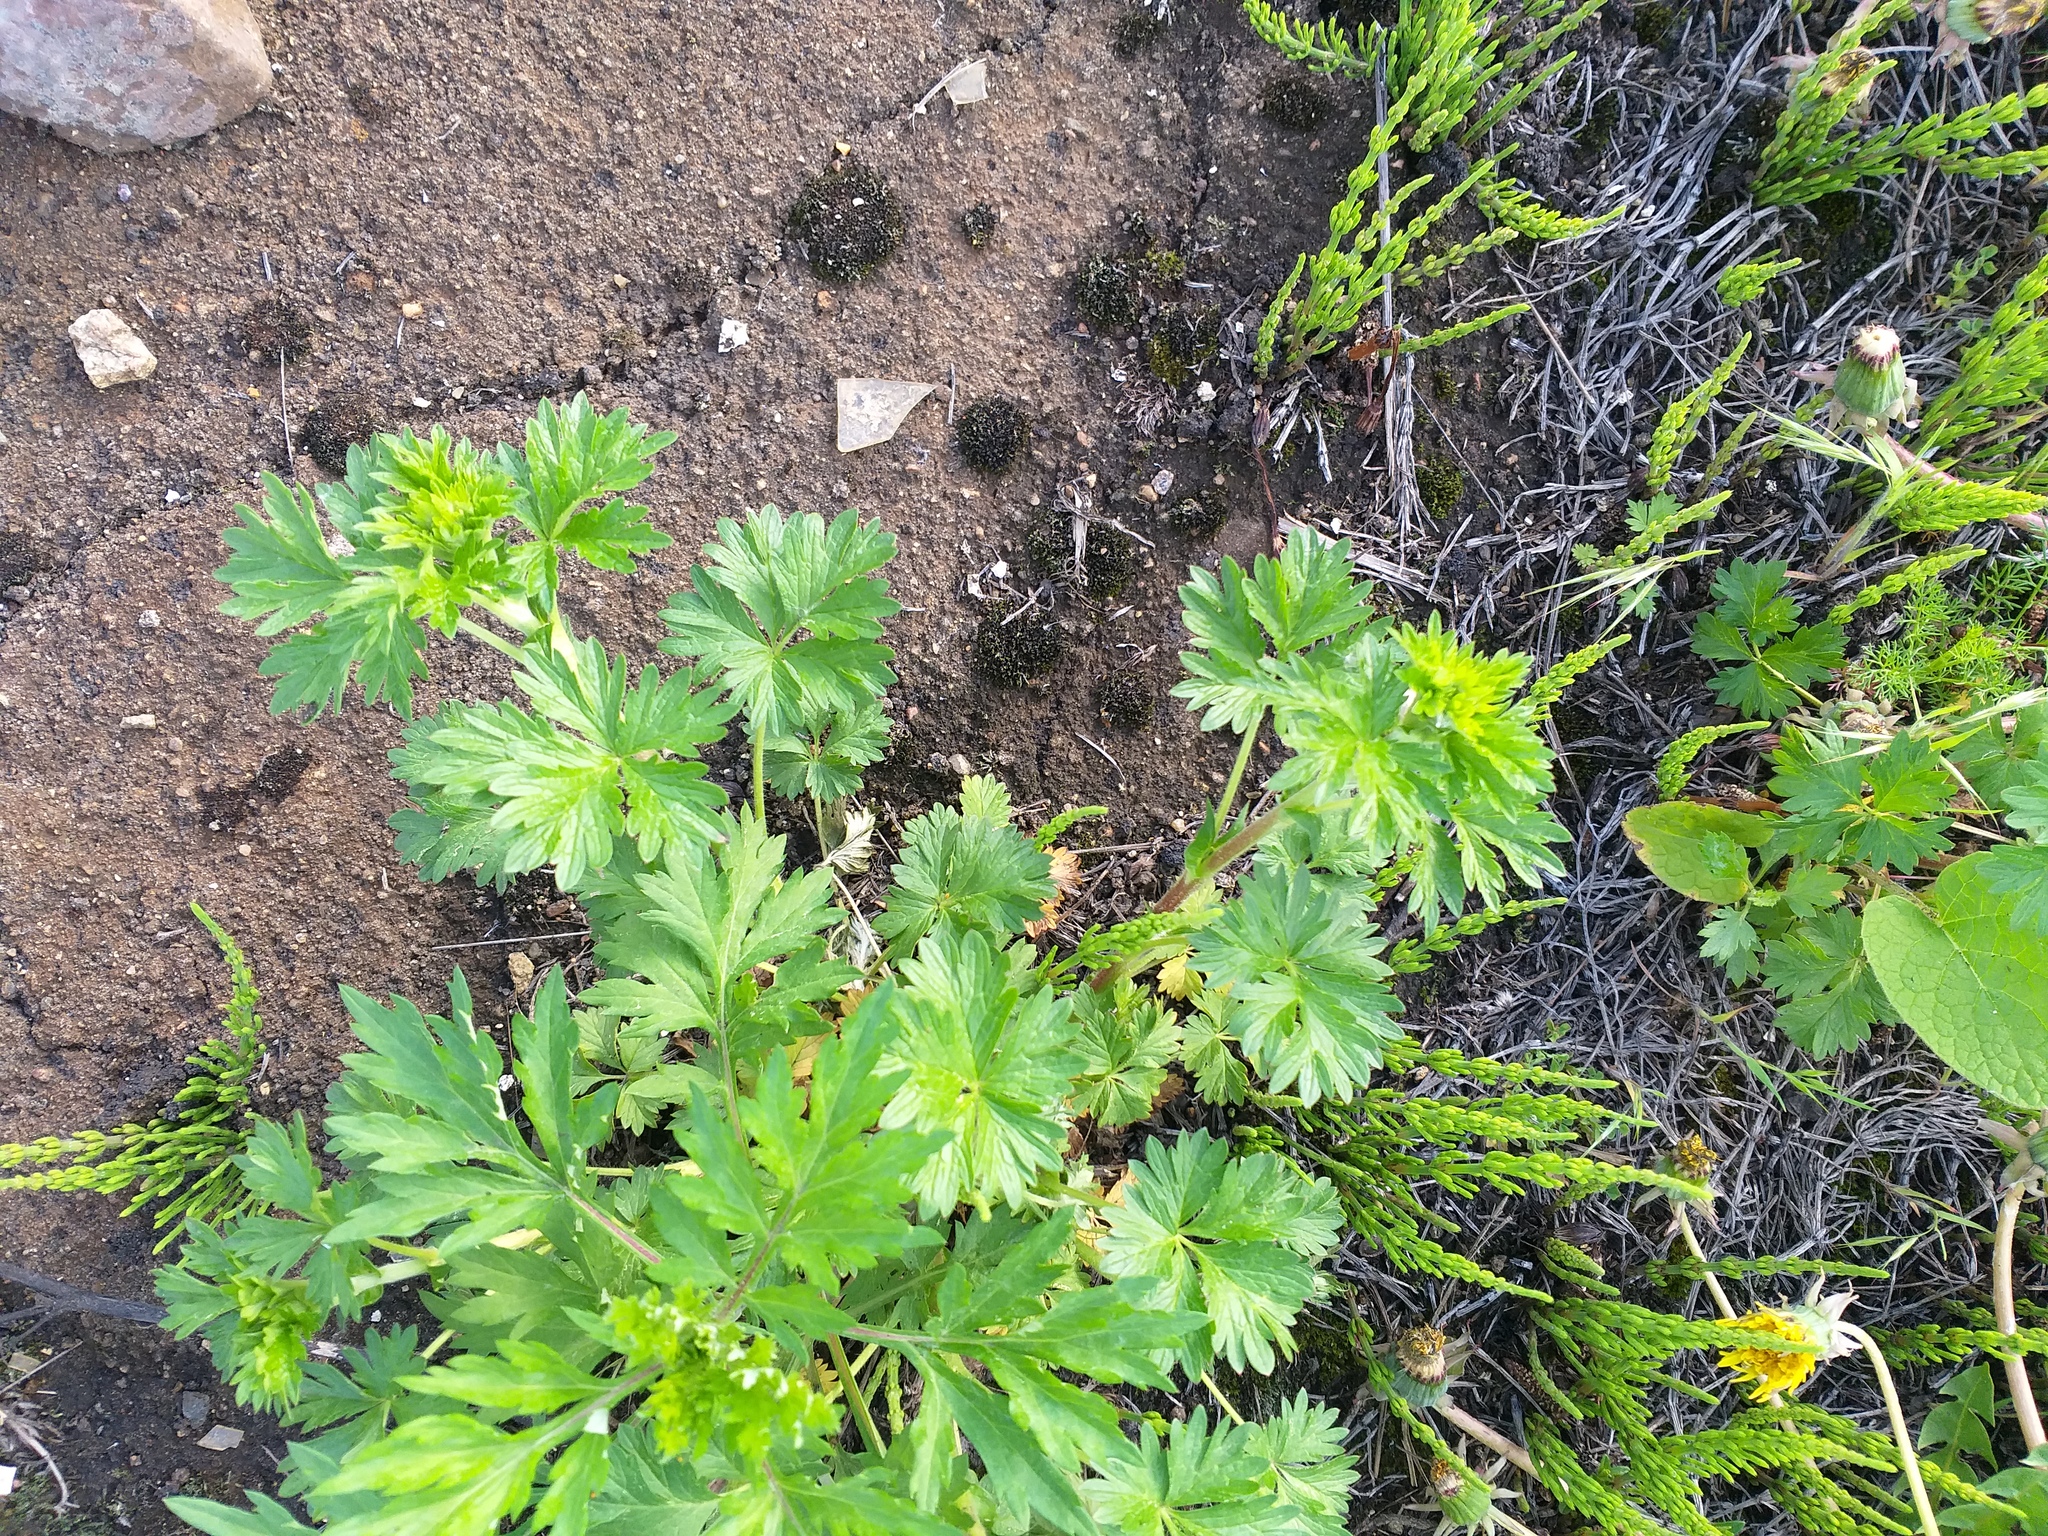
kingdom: Plantae
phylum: Tracheophyta
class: Magnoliopsida
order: Rosales
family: Rosaceae
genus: Potentilla
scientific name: Potentilla intermedia
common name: Downy cinquefoil
